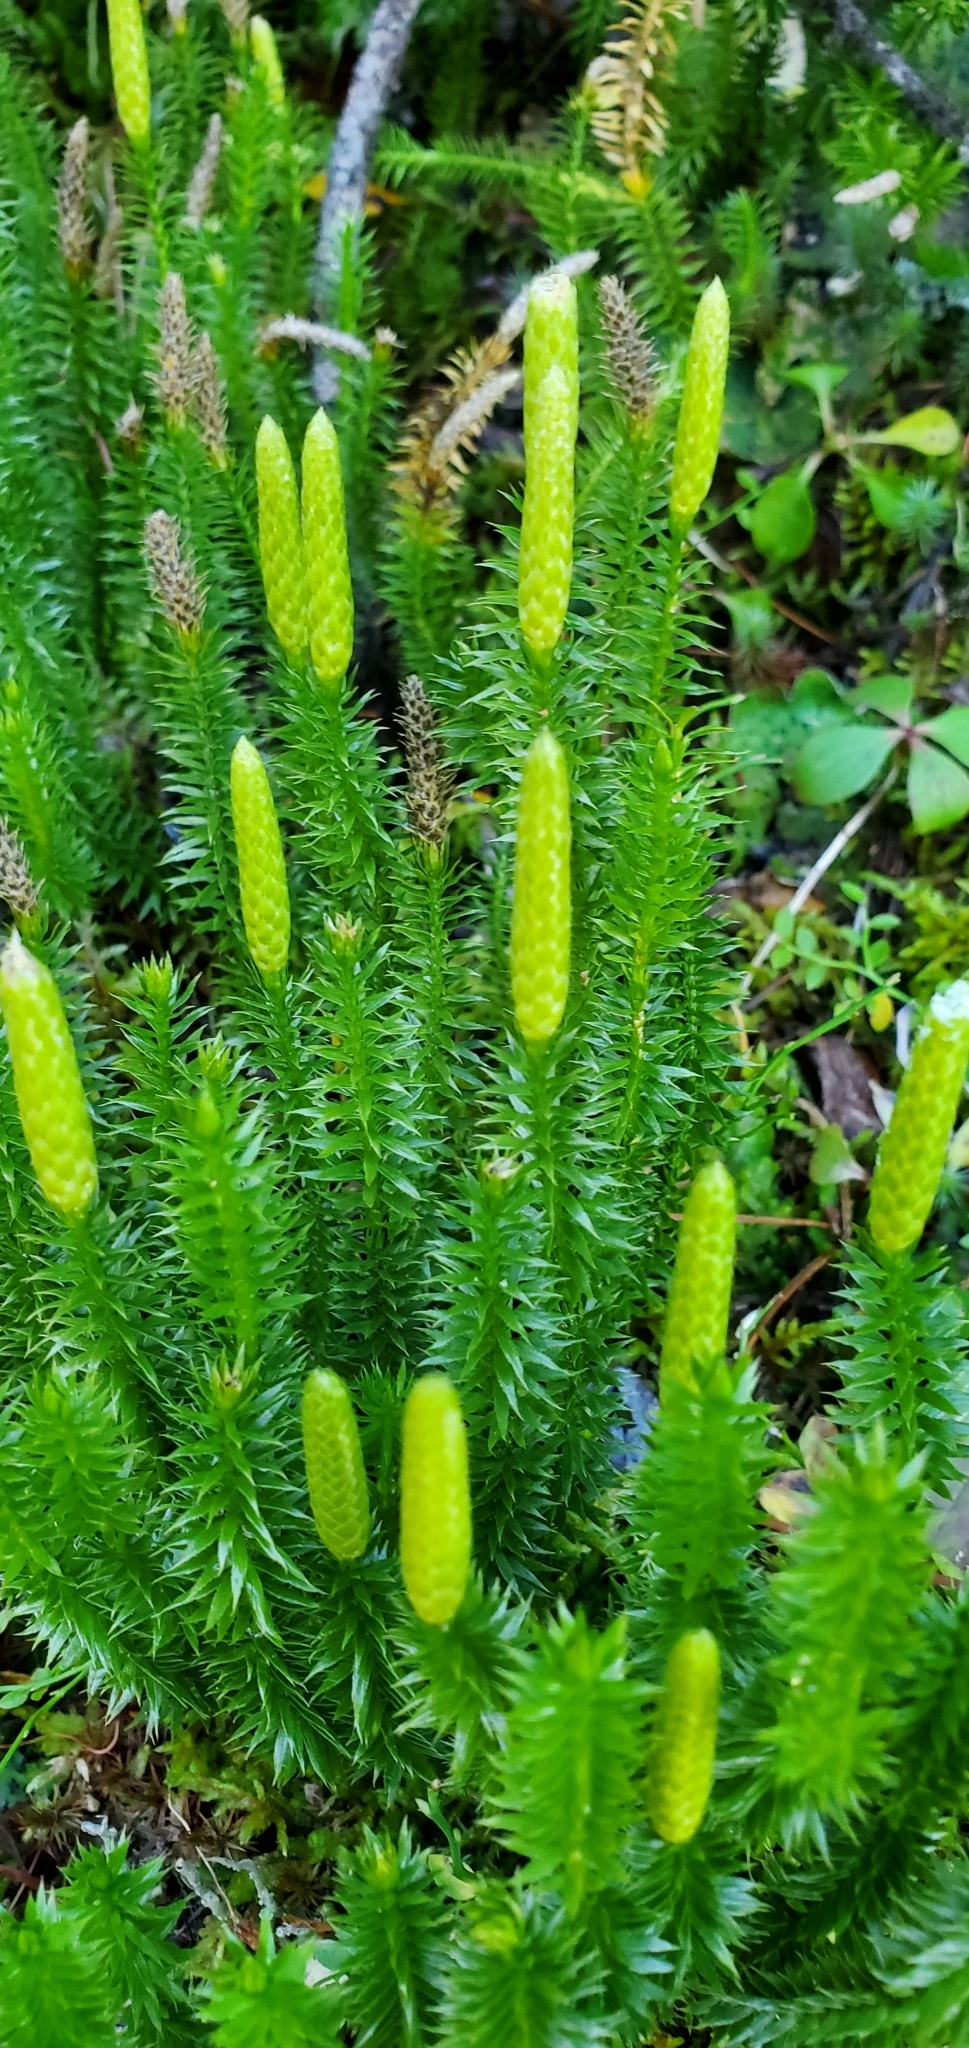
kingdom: Plantae
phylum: Tracheophyta
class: Lycopodiopsida
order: Lycopodiales
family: Lycopodiaceae
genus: Spinulum
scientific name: Spinulum annotinum
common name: Interrupted club-moss
